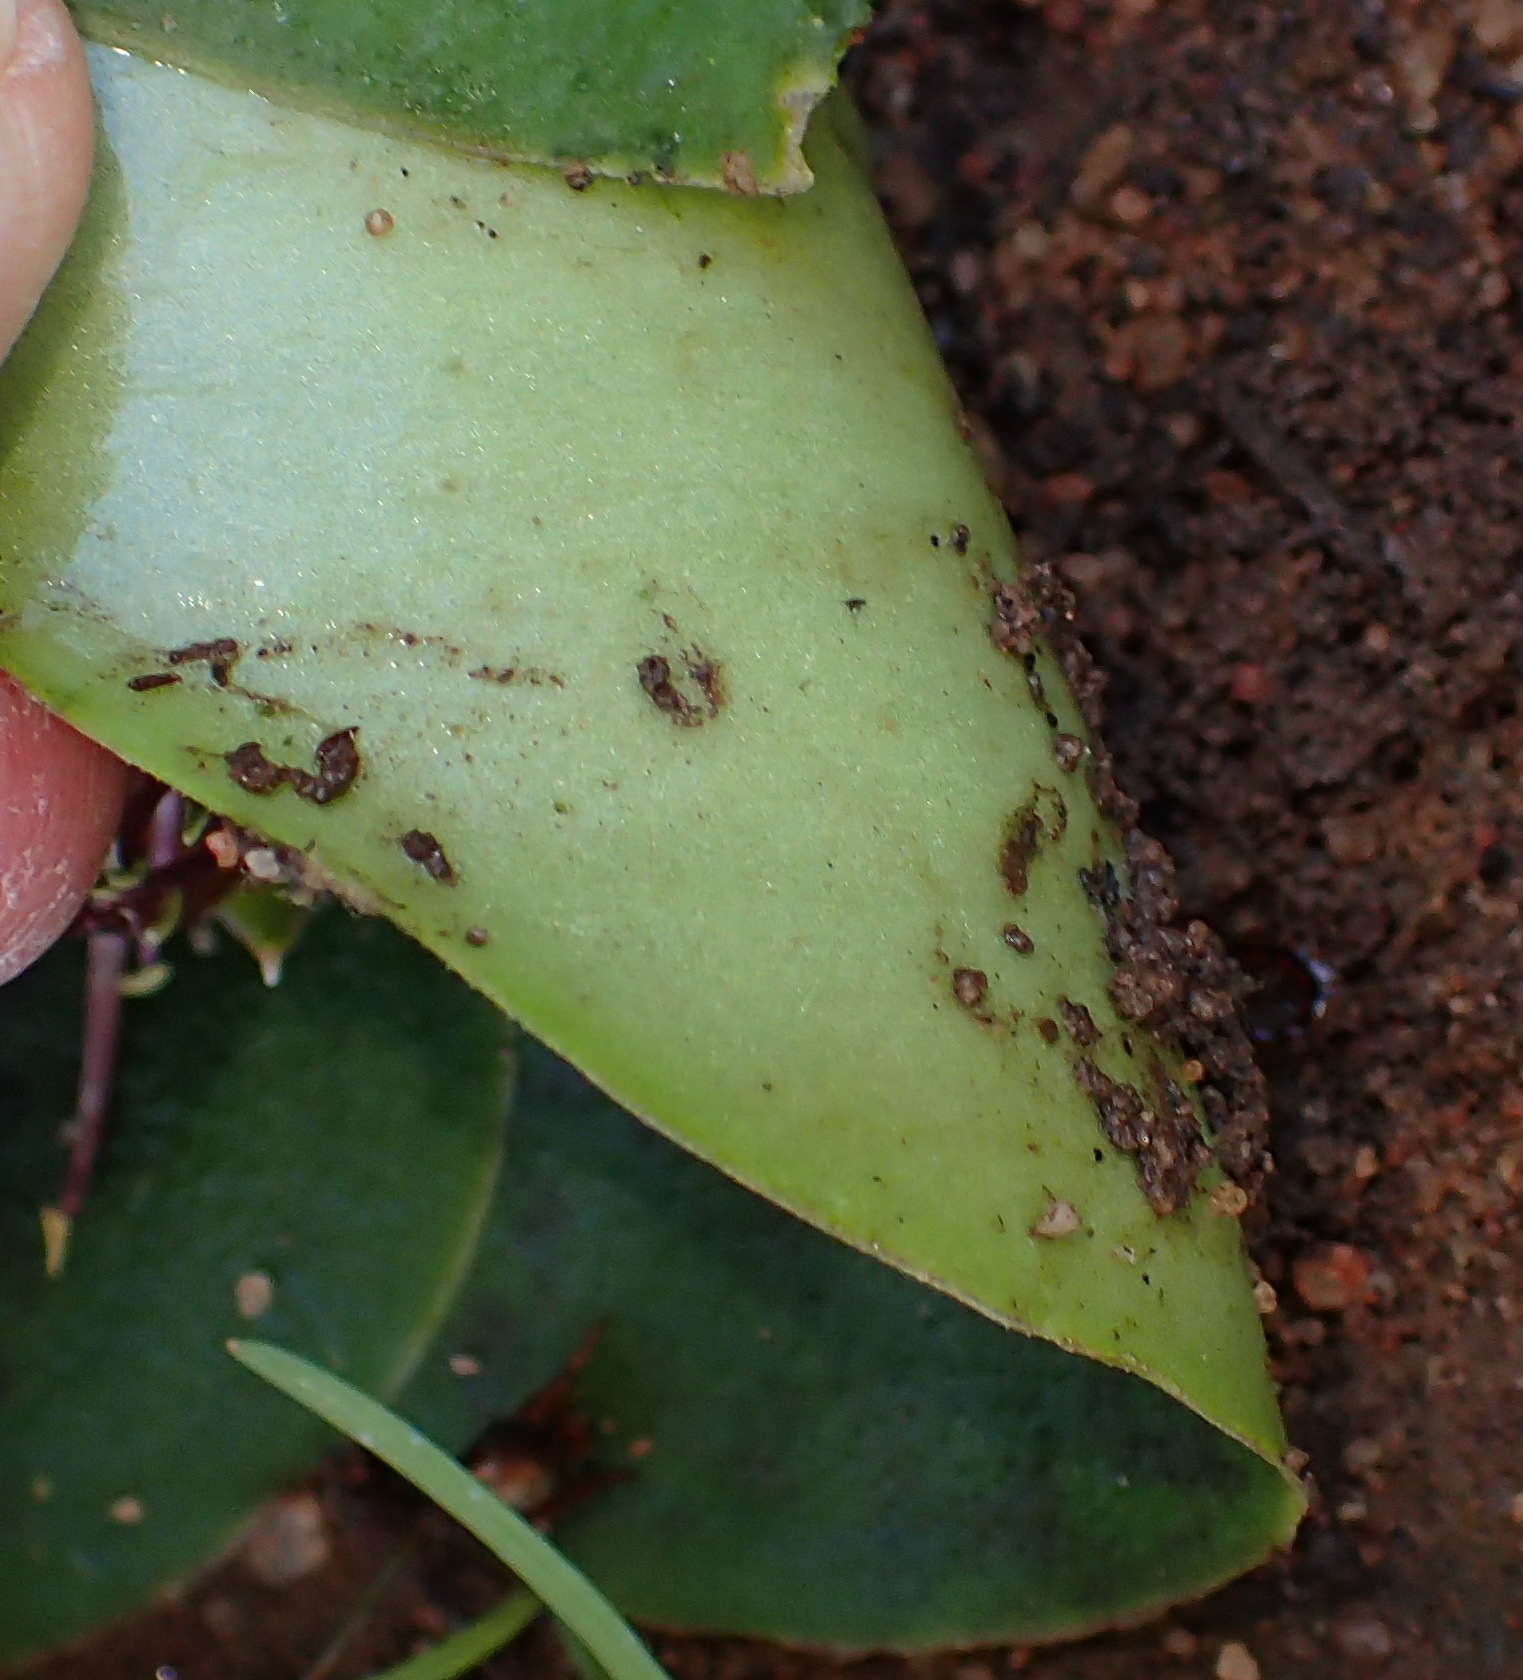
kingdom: Plantae
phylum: Tracheophyta
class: Liliopsida
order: Asparagales
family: Asparagaceae
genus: Massonia
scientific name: Massonia depressa
